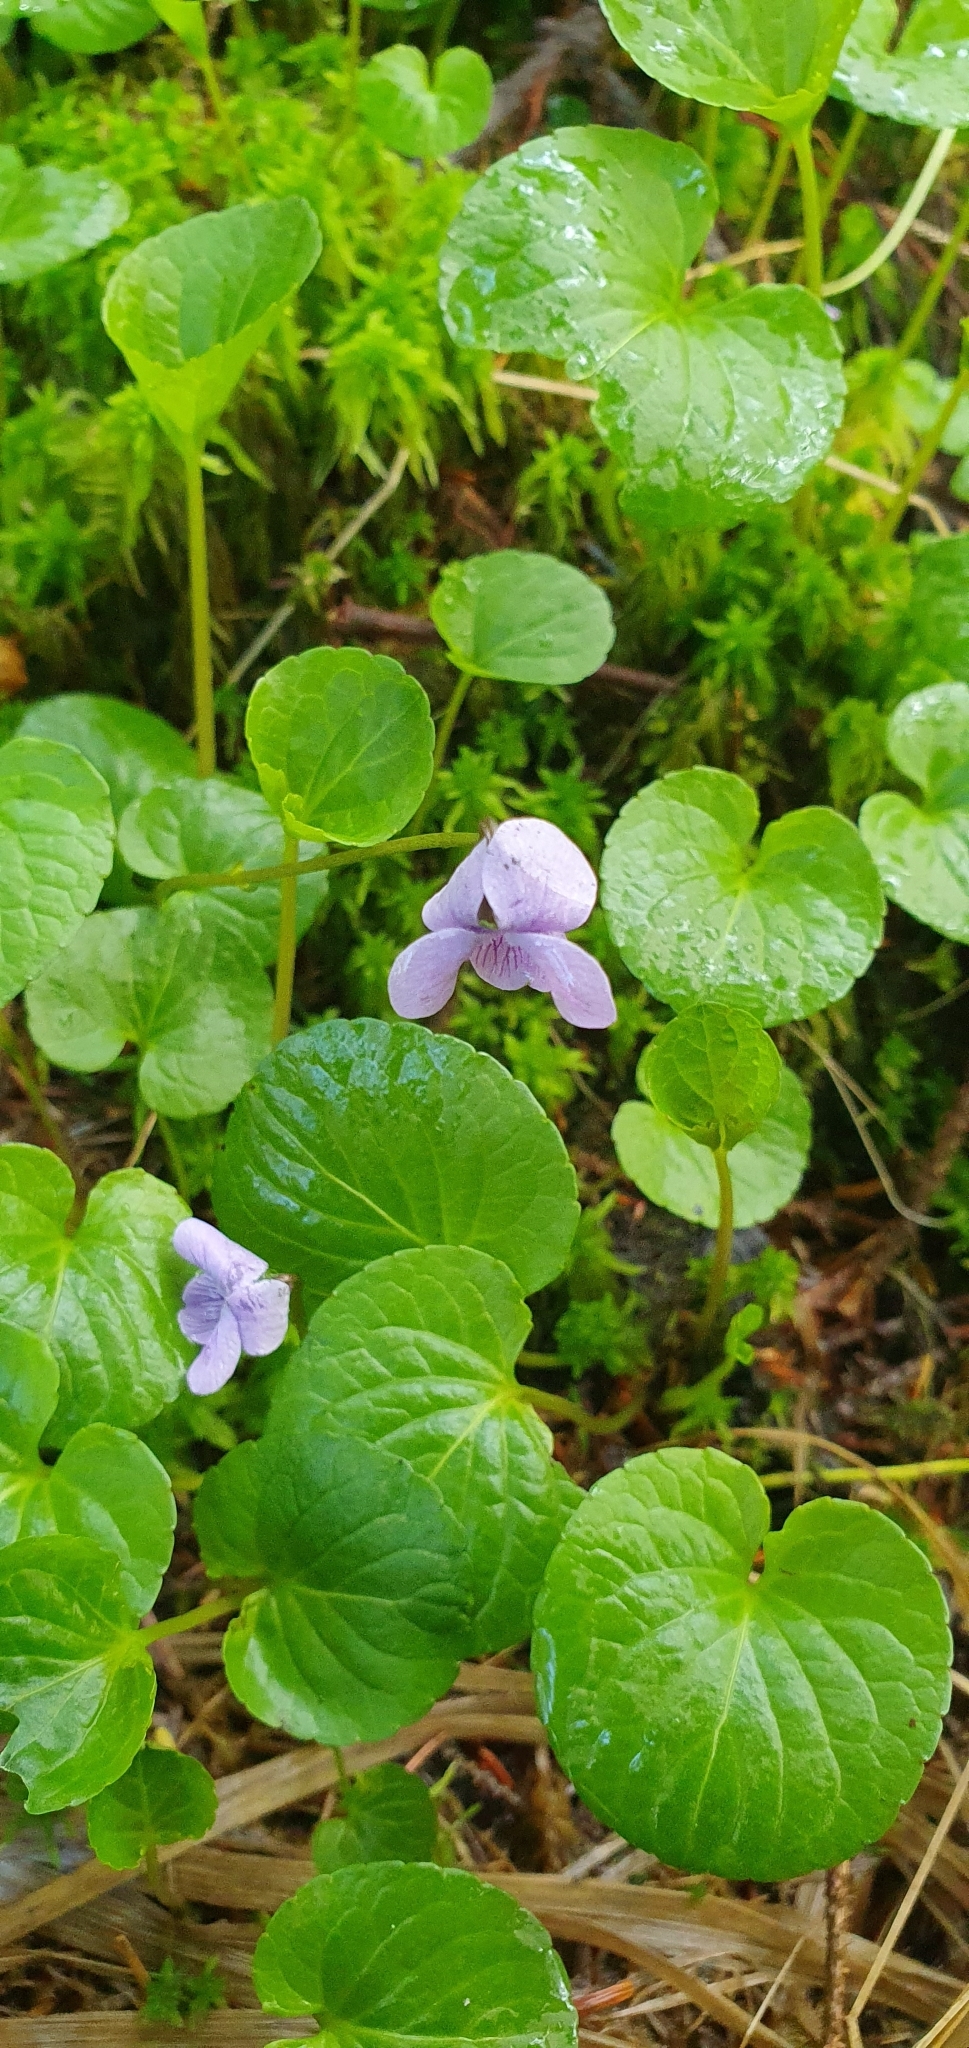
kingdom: Plantae
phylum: Tracheophyta
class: Magnoliopsida
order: Malpighiales
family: Violaceae
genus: Viola
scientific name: Viola palustris
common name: Marsh violet
